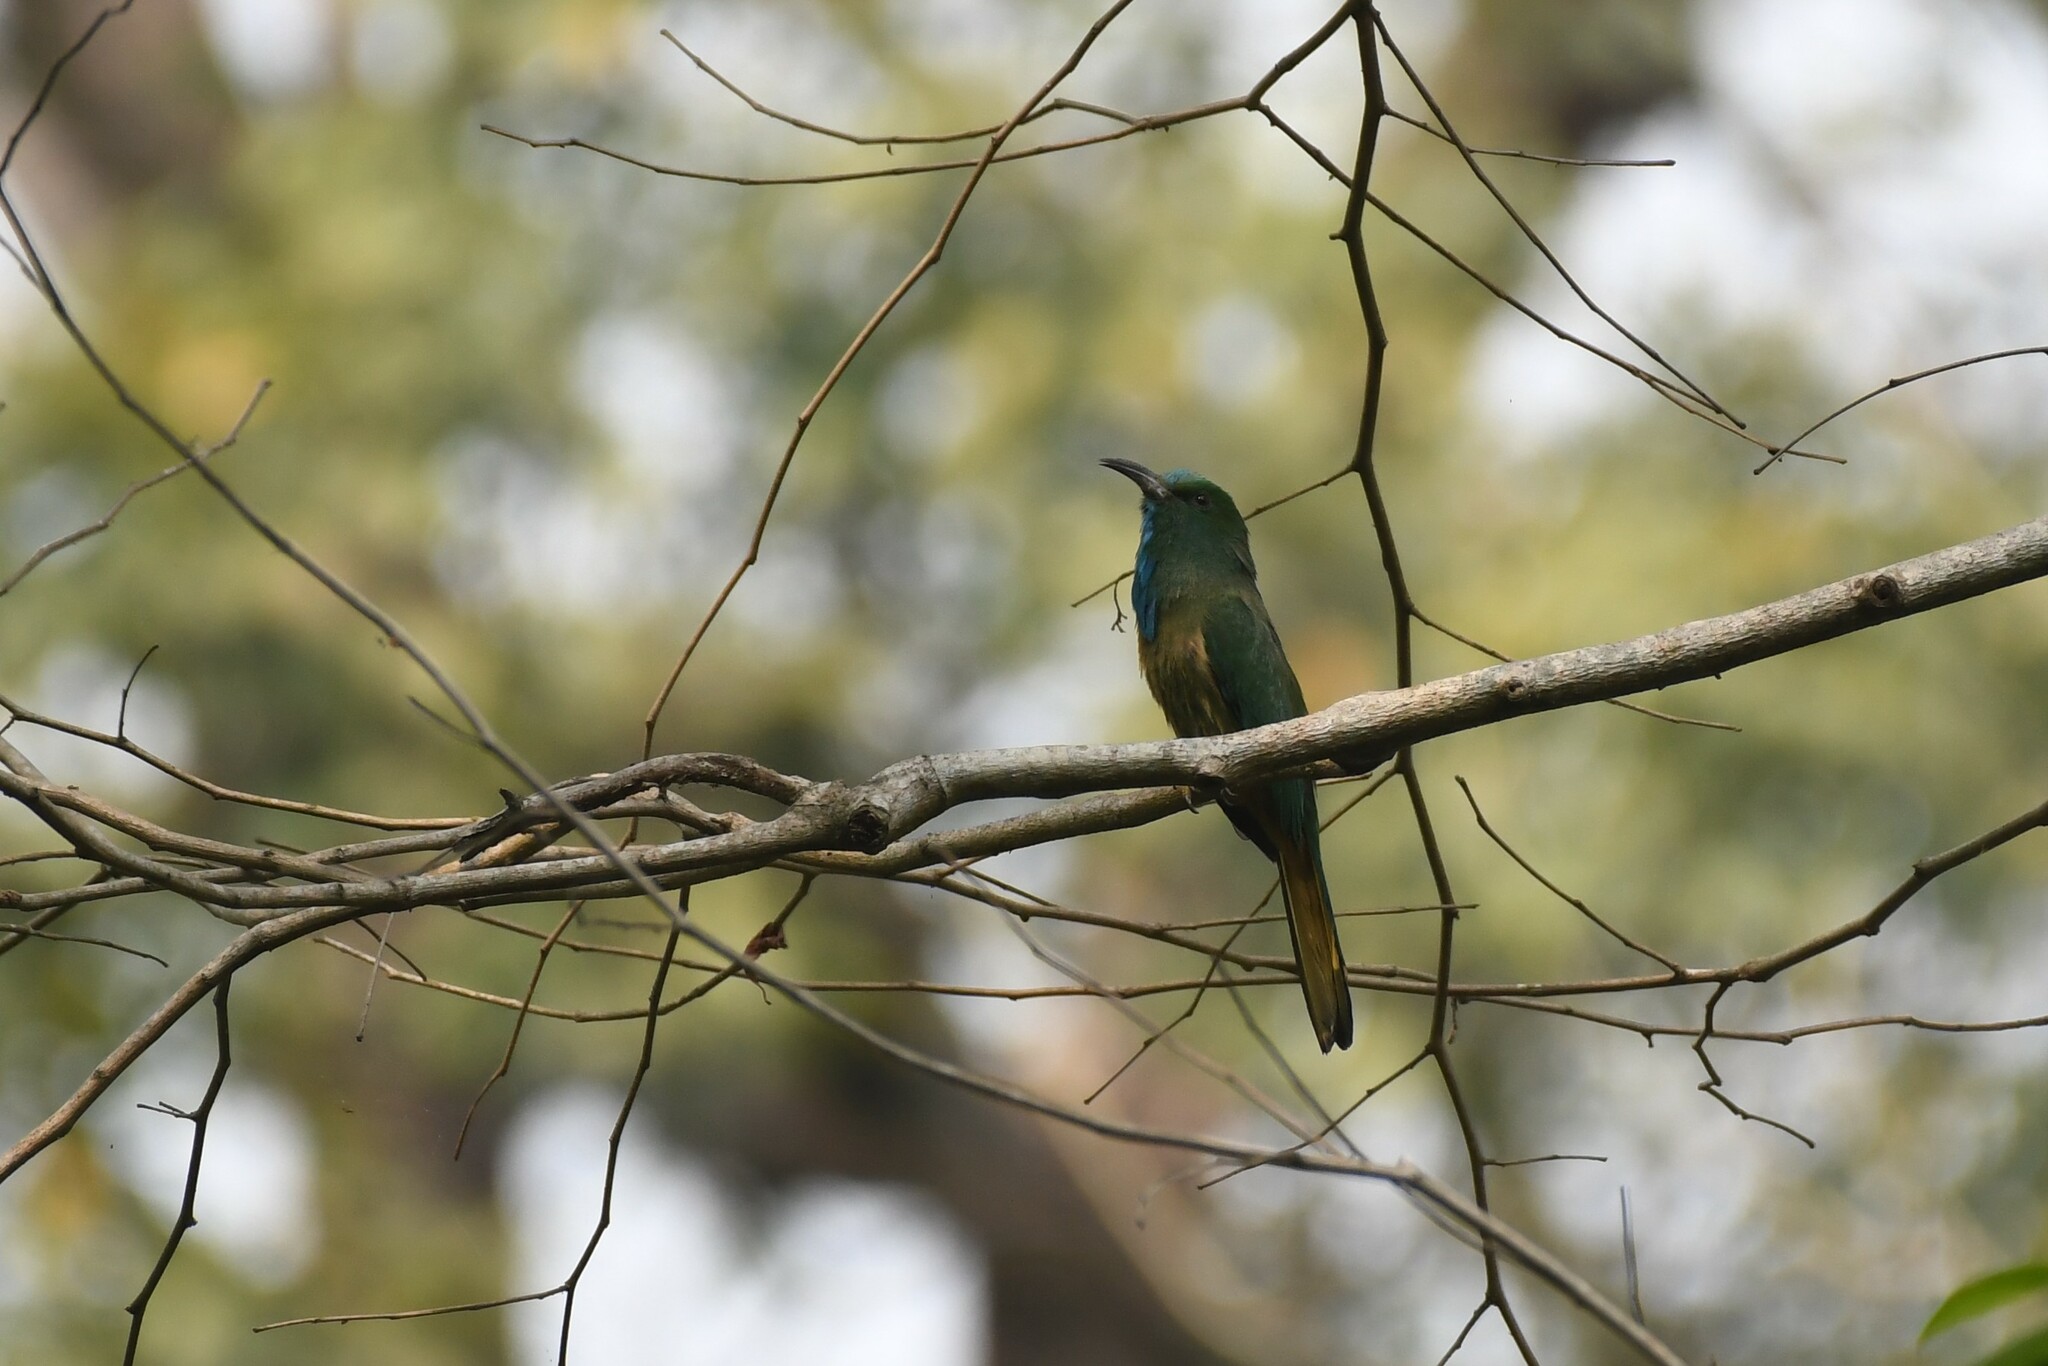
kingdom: Animalia
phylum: Chordata
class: Aves
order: Coraciiformes
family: Meropidae
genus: Nyctyornis
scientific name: Nyctyornis athertoni
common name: Blue-bearded bee-eater
